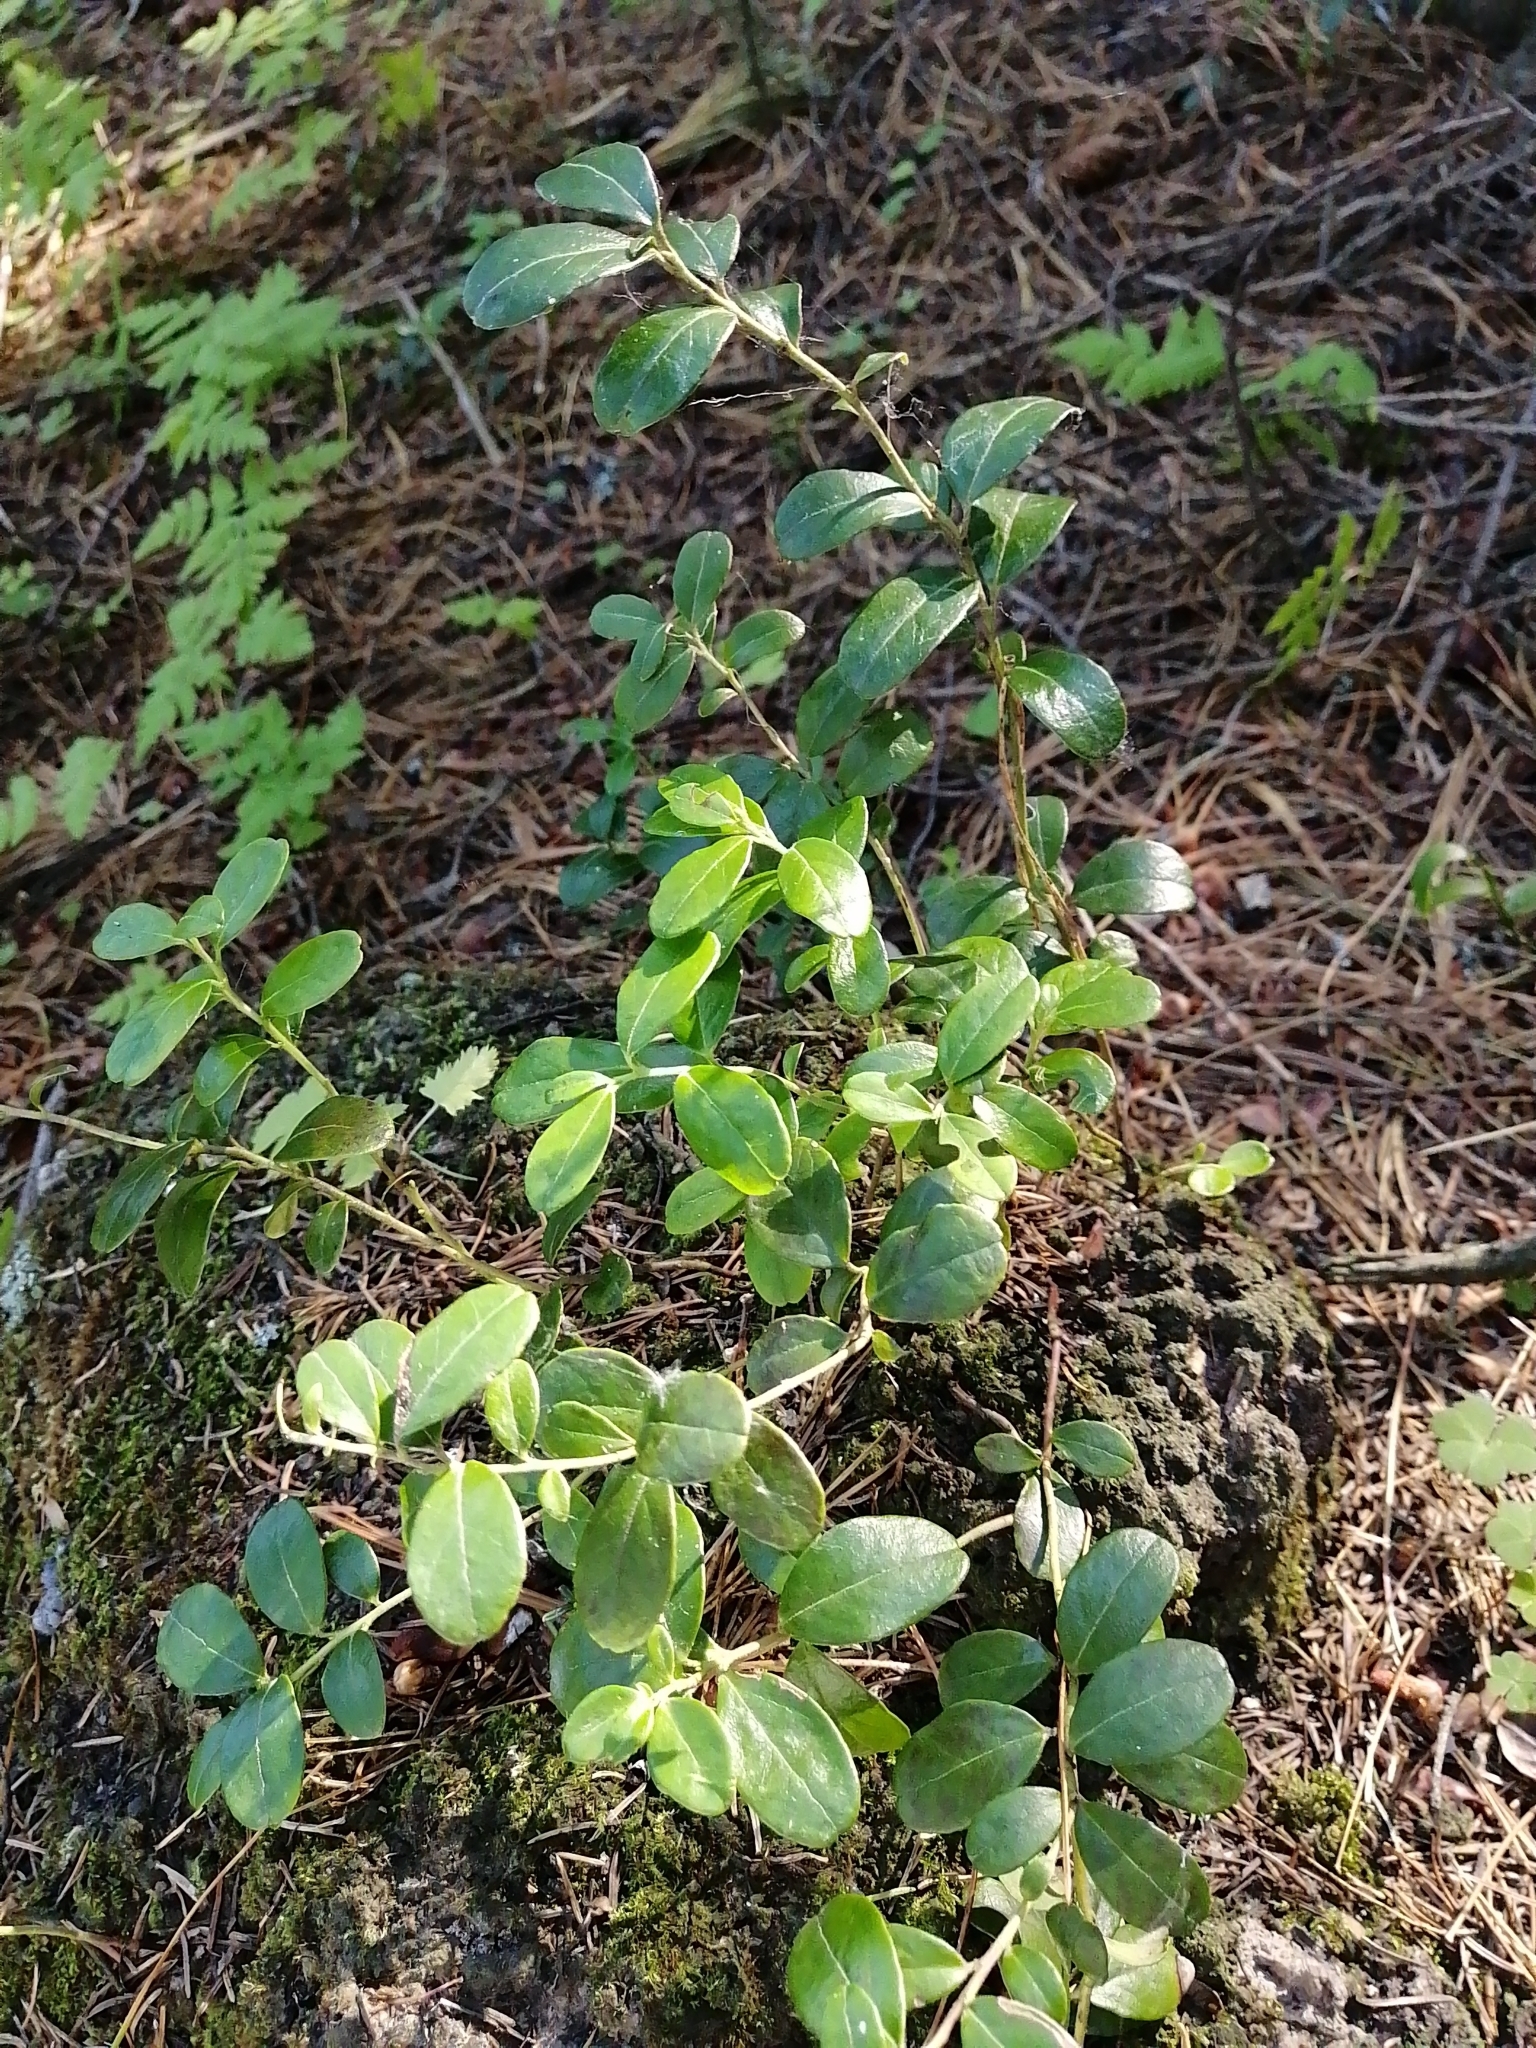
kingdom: Plantae
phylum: Tracheophyta
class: Magnoliopsida
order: Ericales
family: Ericaceae
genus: Vaccinium
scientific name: Vaccinium vitis-idaea
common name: Cowberry
